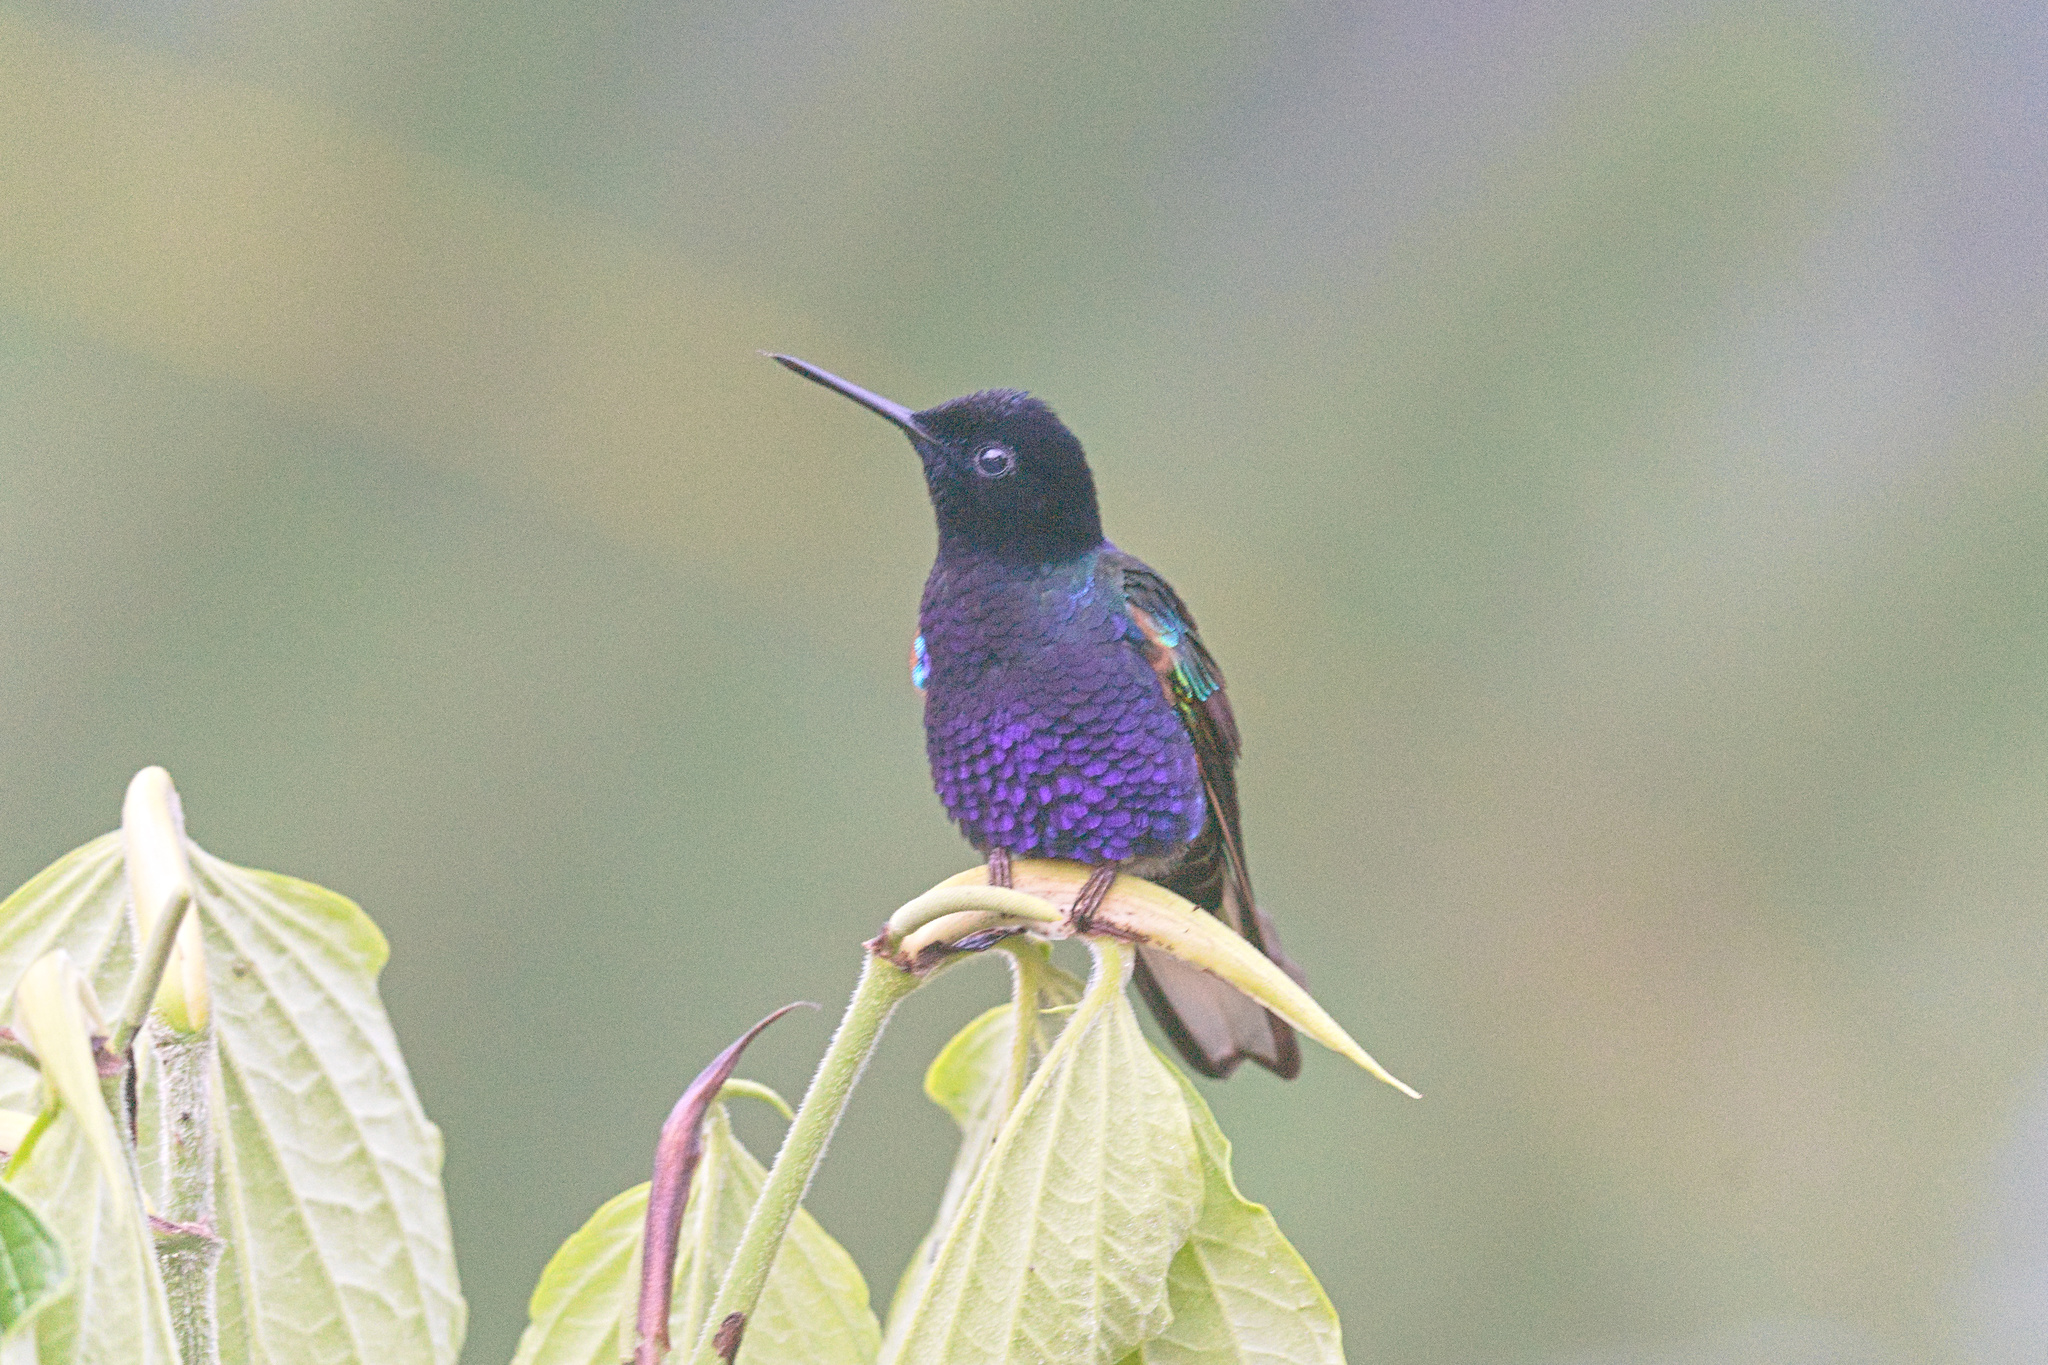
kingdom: Animalia
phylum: Chordata
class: Aves
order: Apodiformes
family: Trochilidae
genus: Boissonneaua
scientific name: Boissonneaua jardini
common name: Velvet-purple coronet
